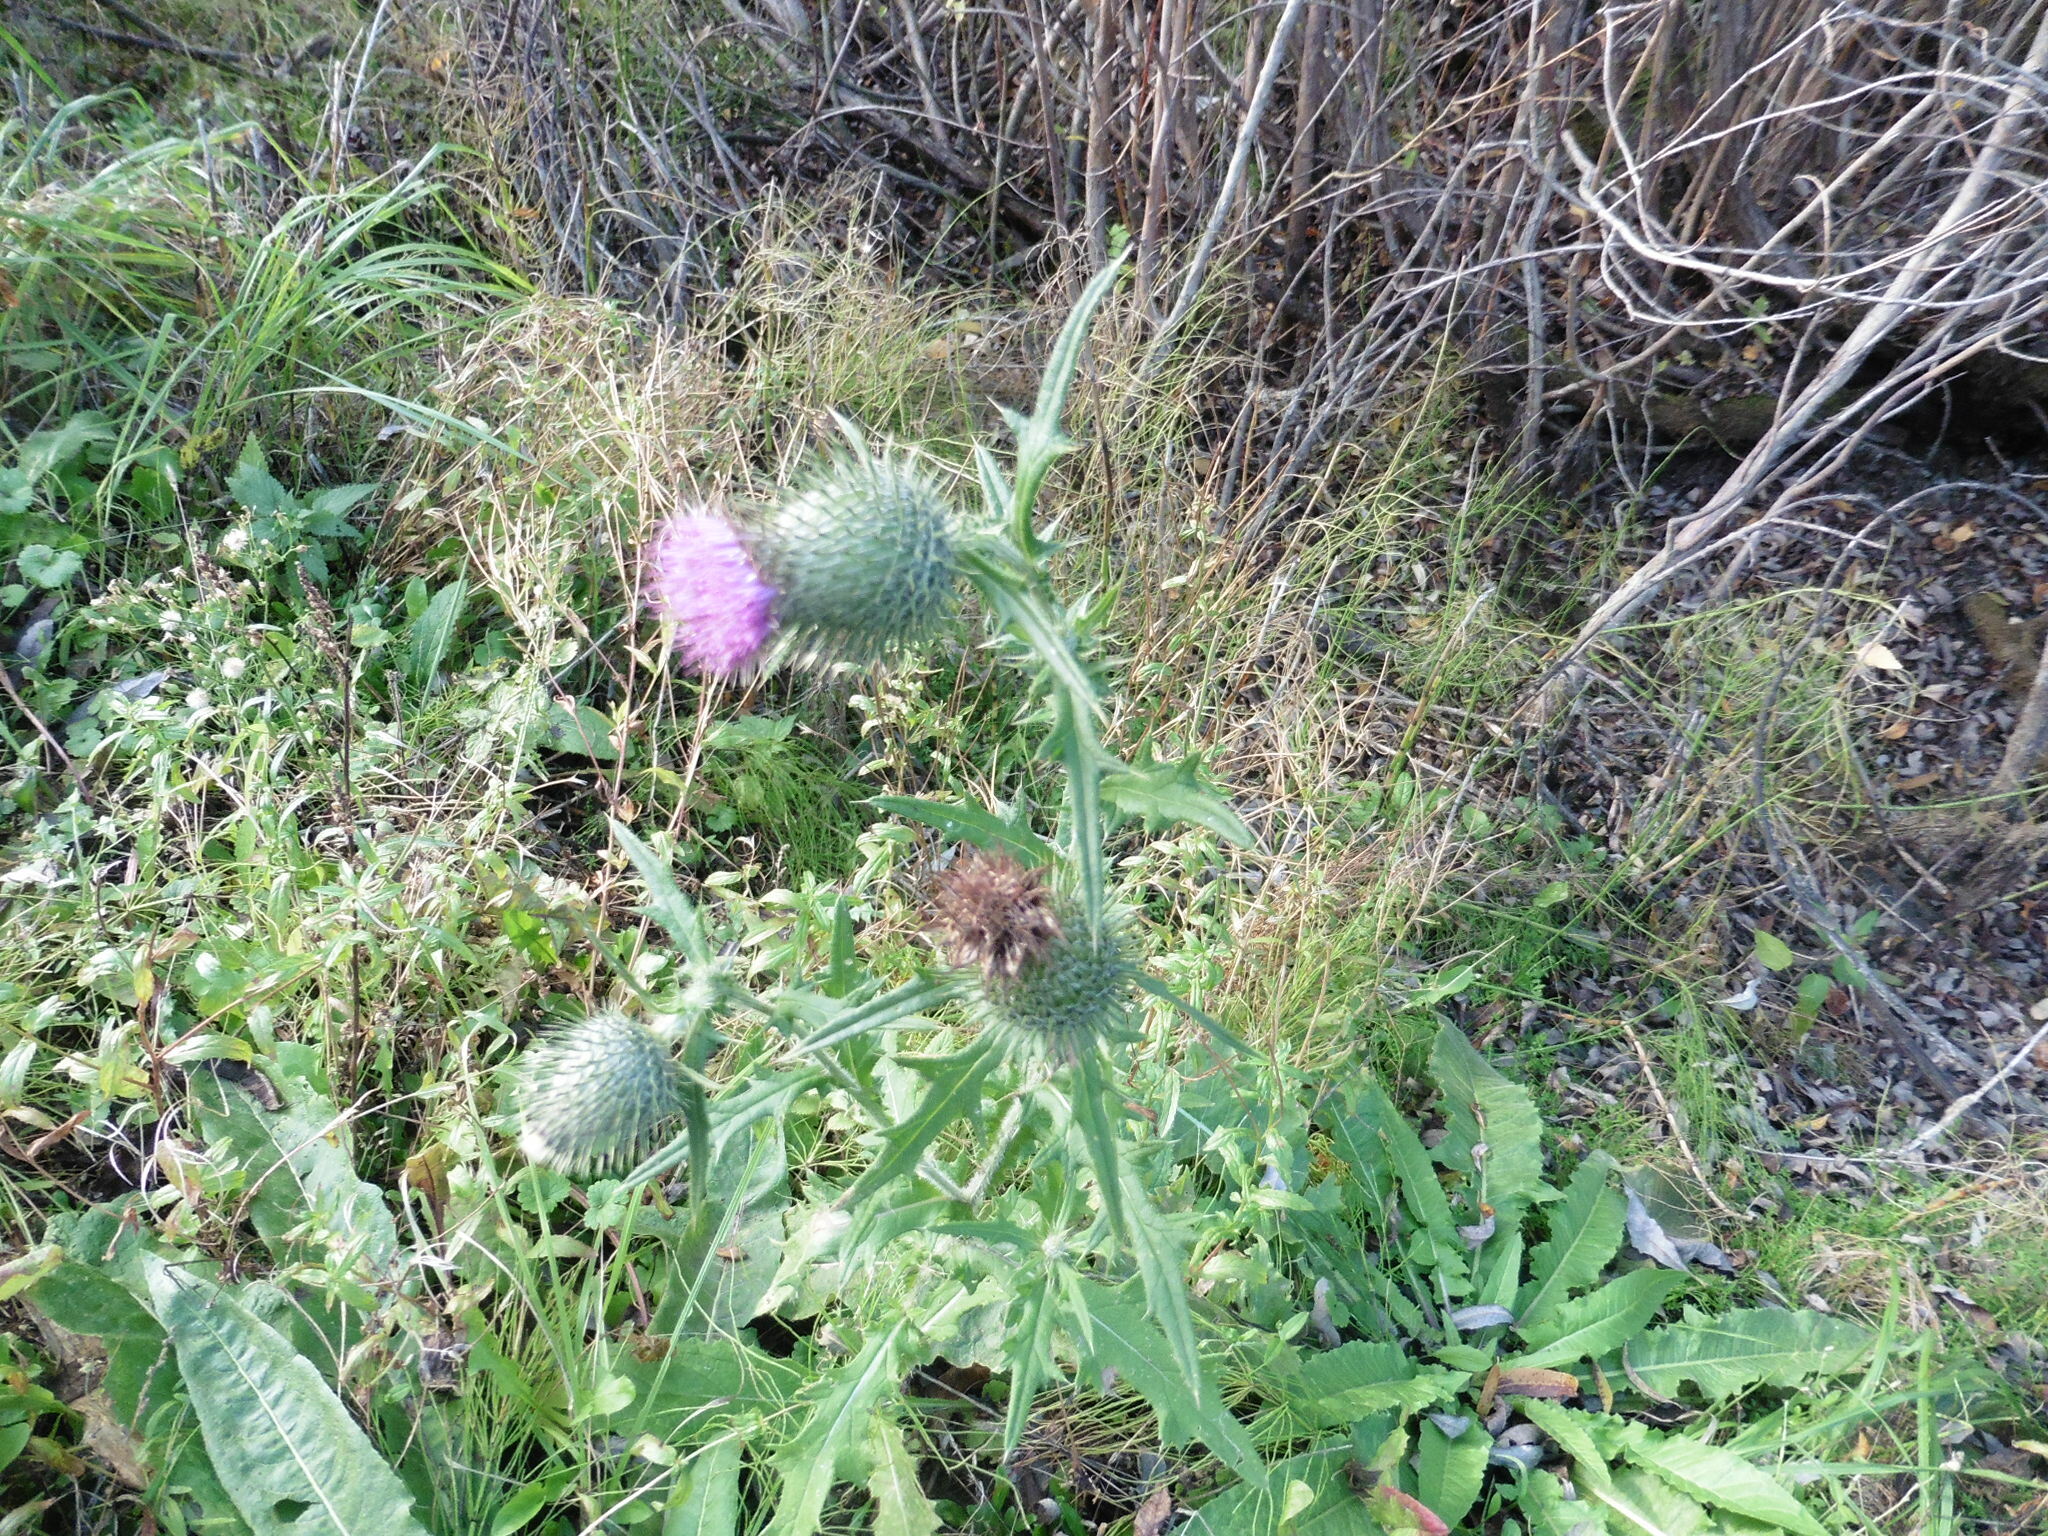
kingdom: Plantae
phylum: Tracheophyta
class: Magnoliopsida
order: Asterales
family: Asteraceae
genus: Cirsium
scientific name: Cirsium vulgare
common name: Bull thistle
